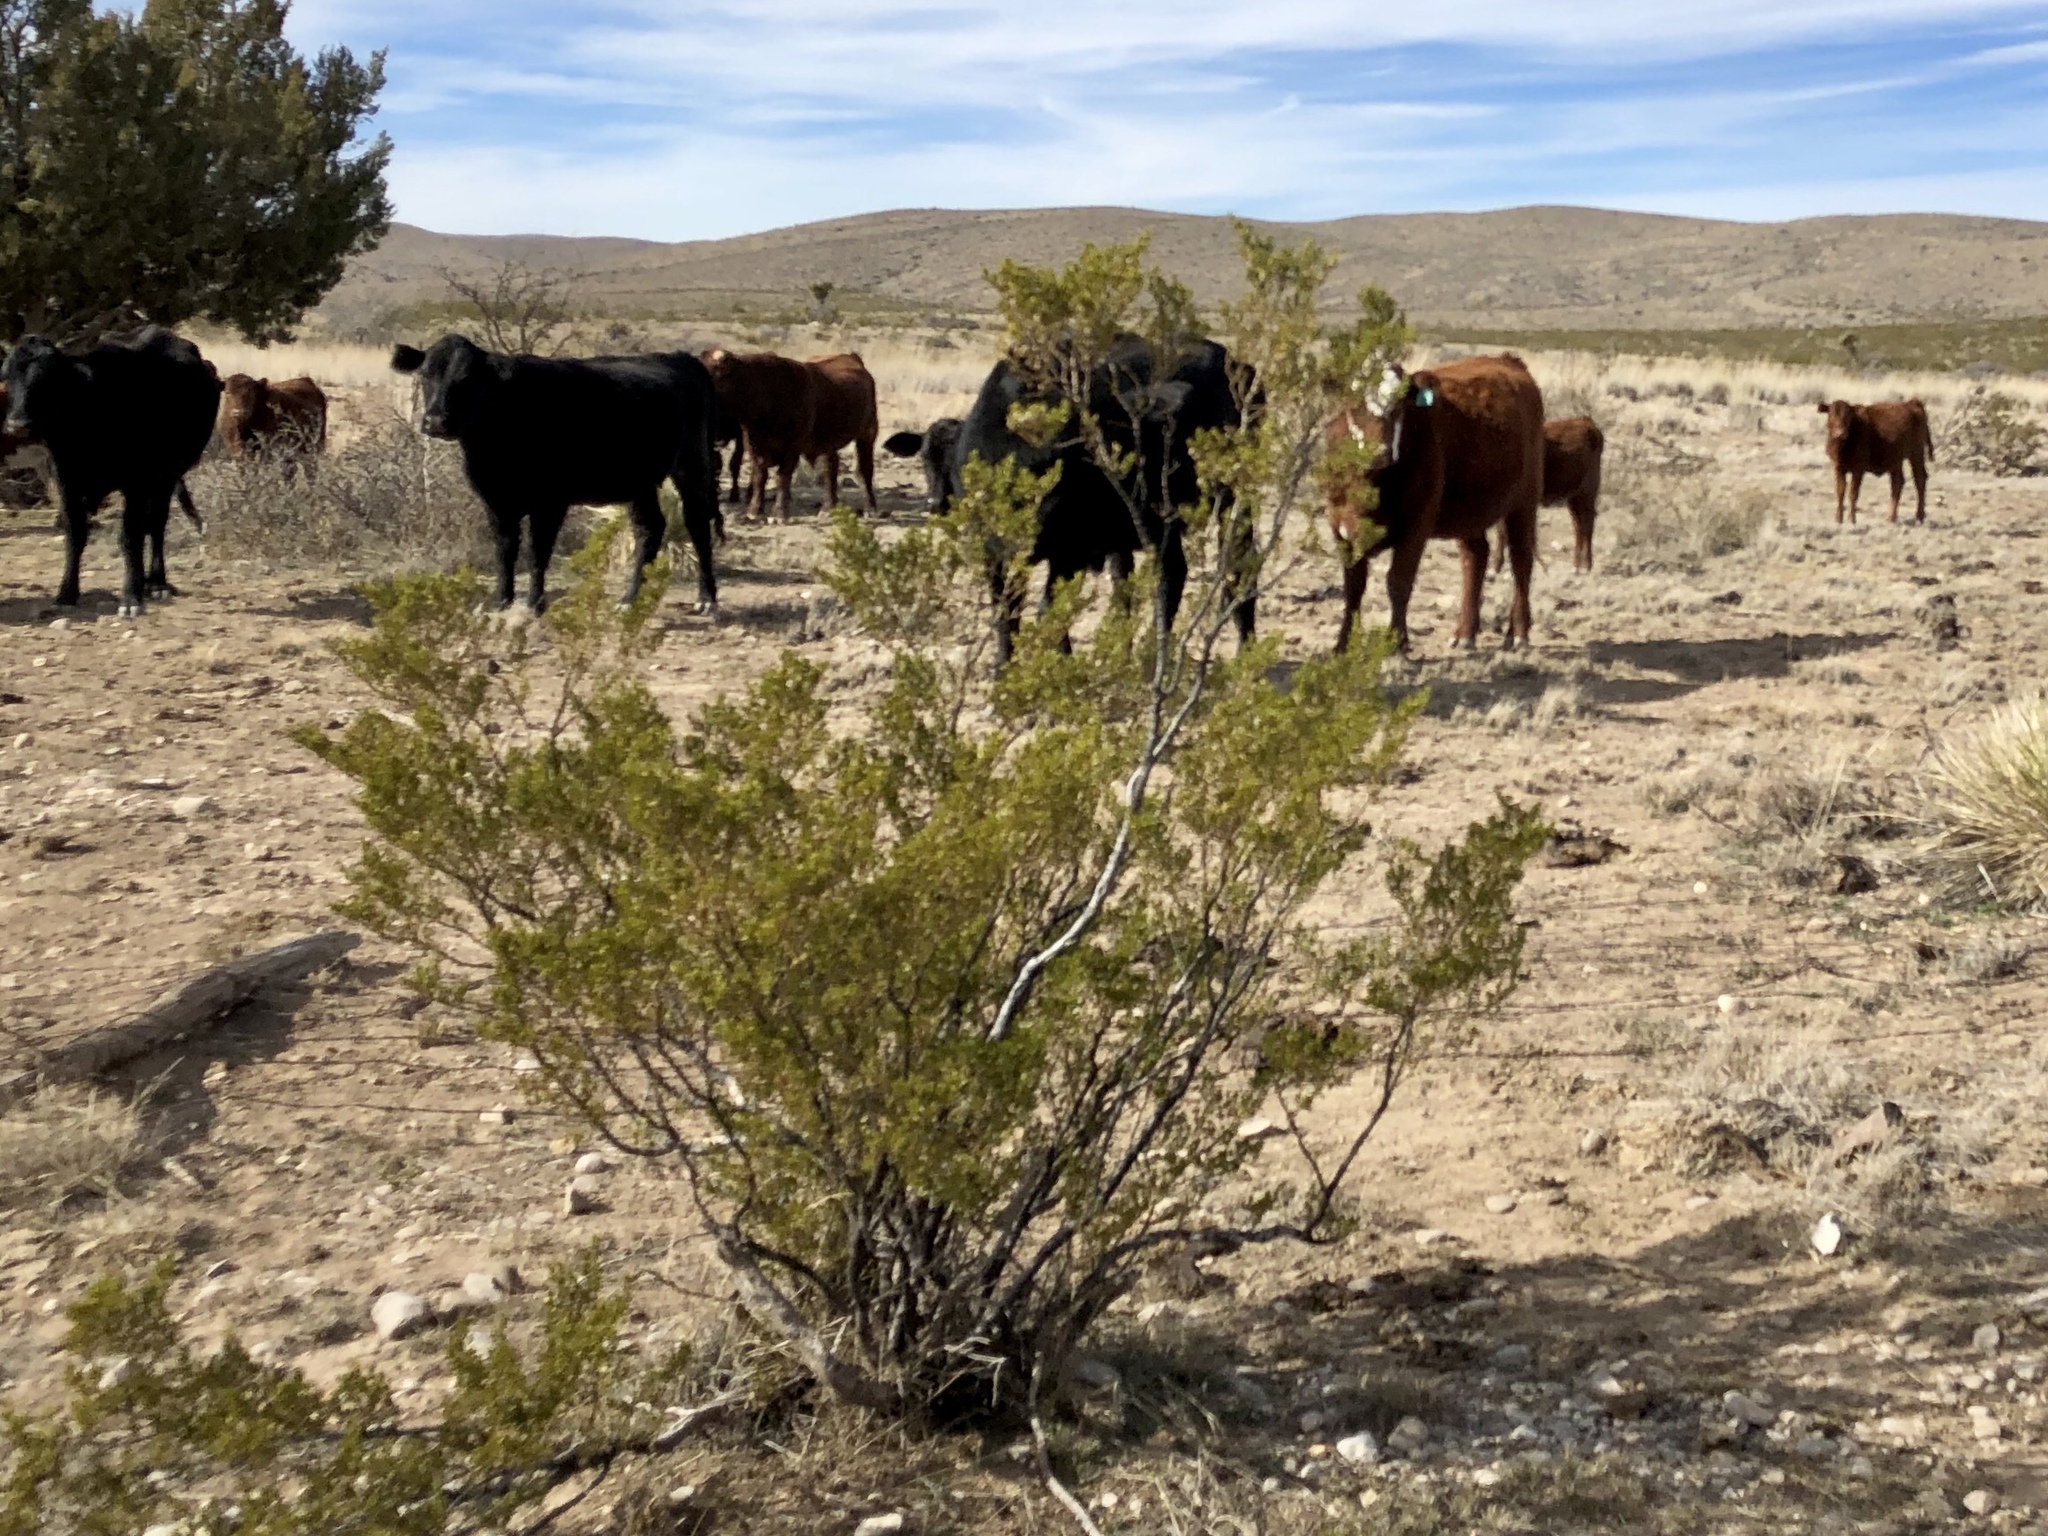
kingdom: Plantae
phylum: Tracheophyta
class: Magnoliopsida
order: Zygophyllales
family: Zygophyllaceae
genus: Larrea
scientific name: Larrea tridentata
